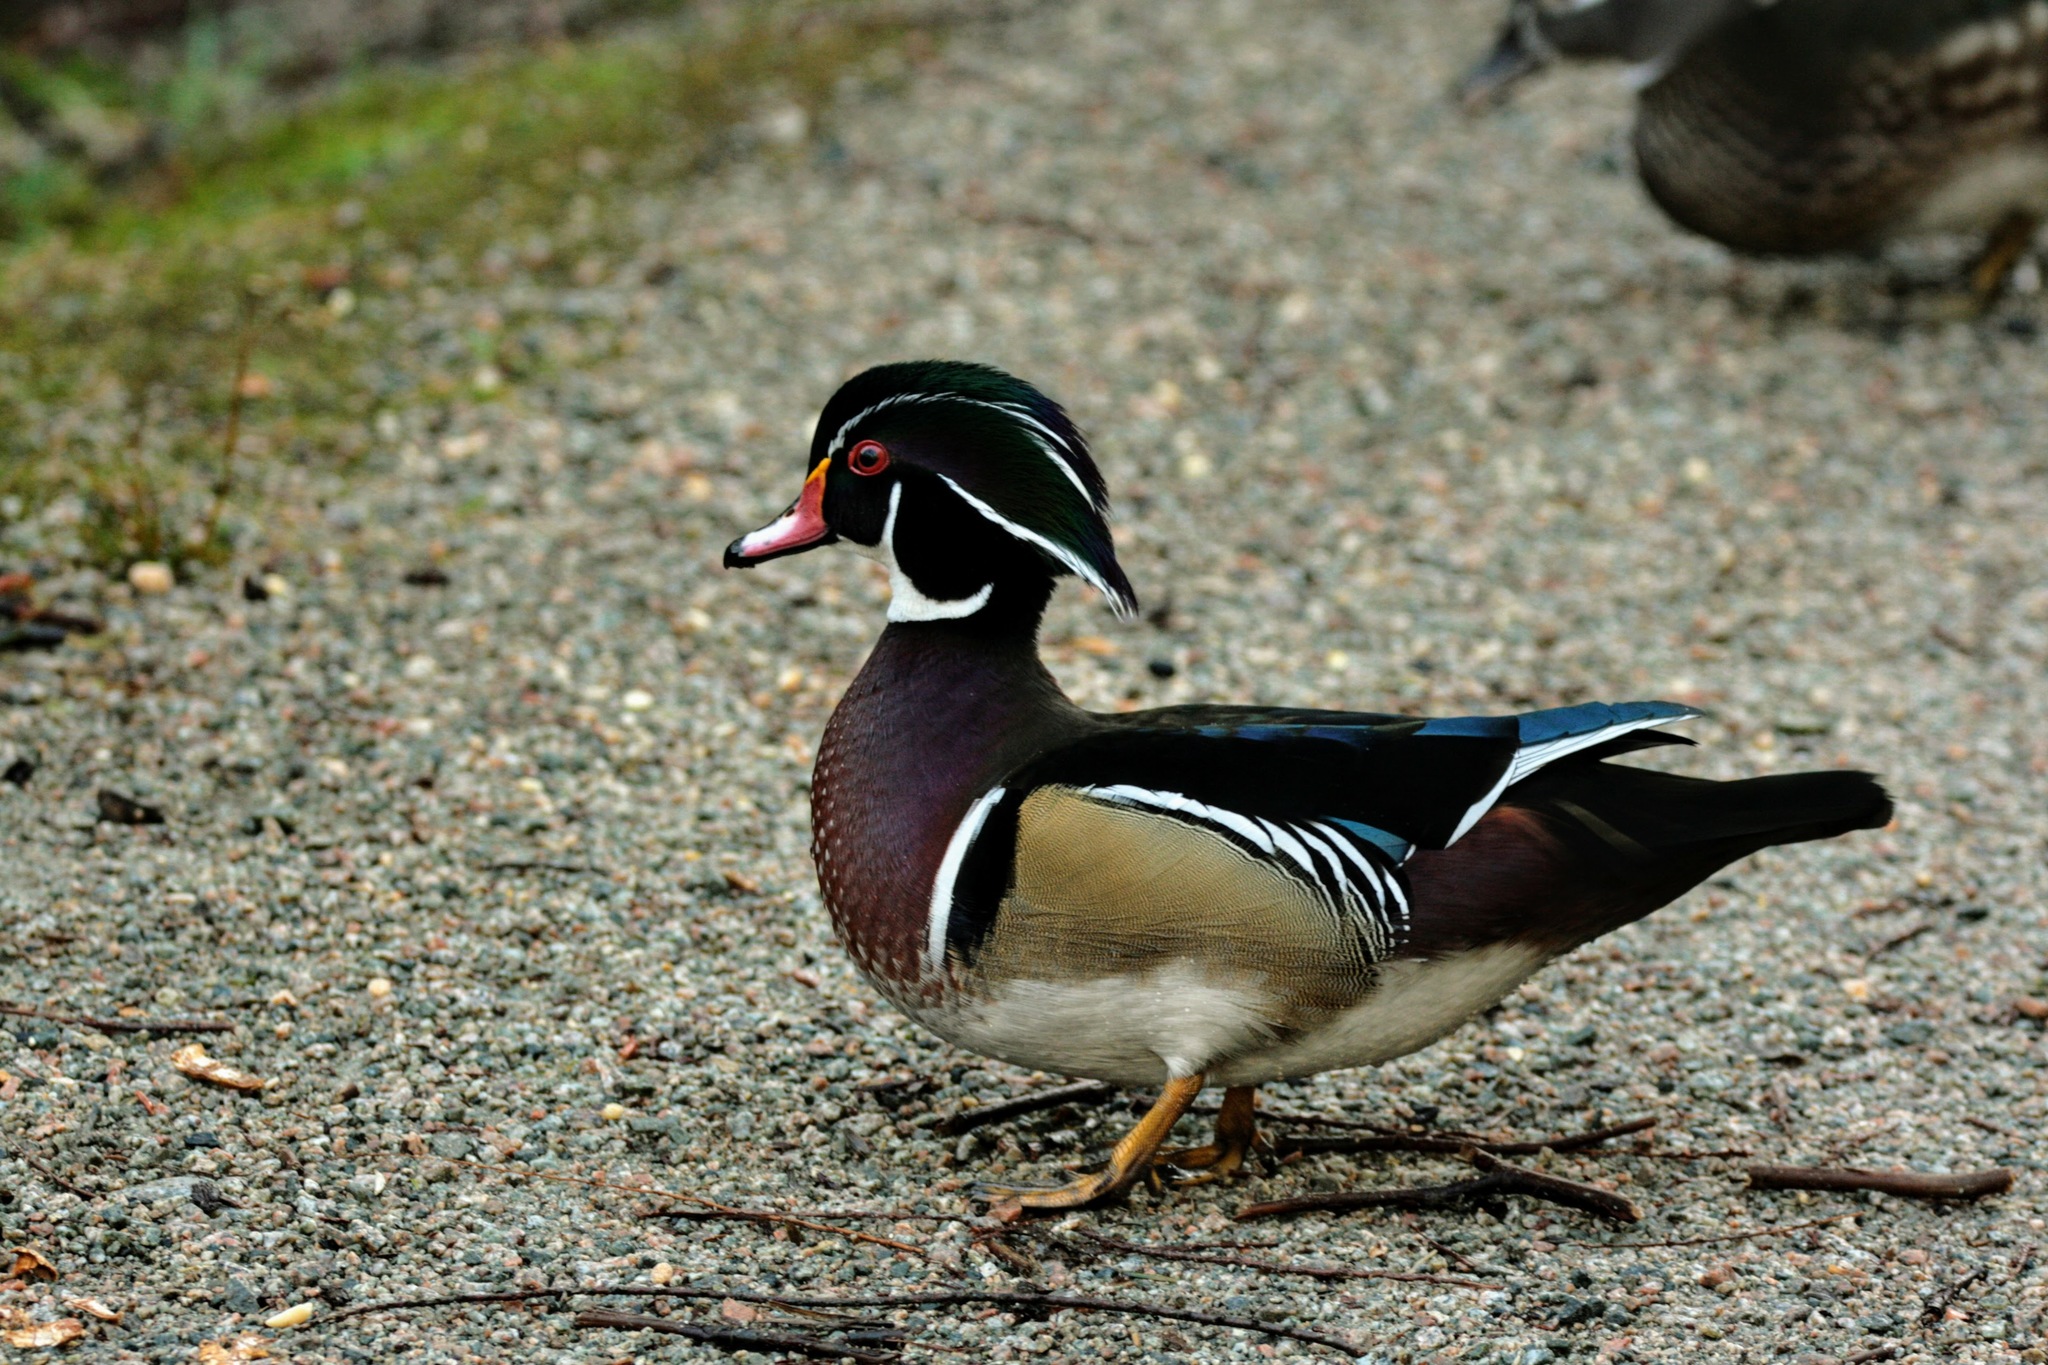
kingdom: Animalia
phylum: Chordata
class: Aves
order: Anseriformes
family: Anatidae
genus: Aix
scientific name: Aix sponsa
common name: Wood duck
